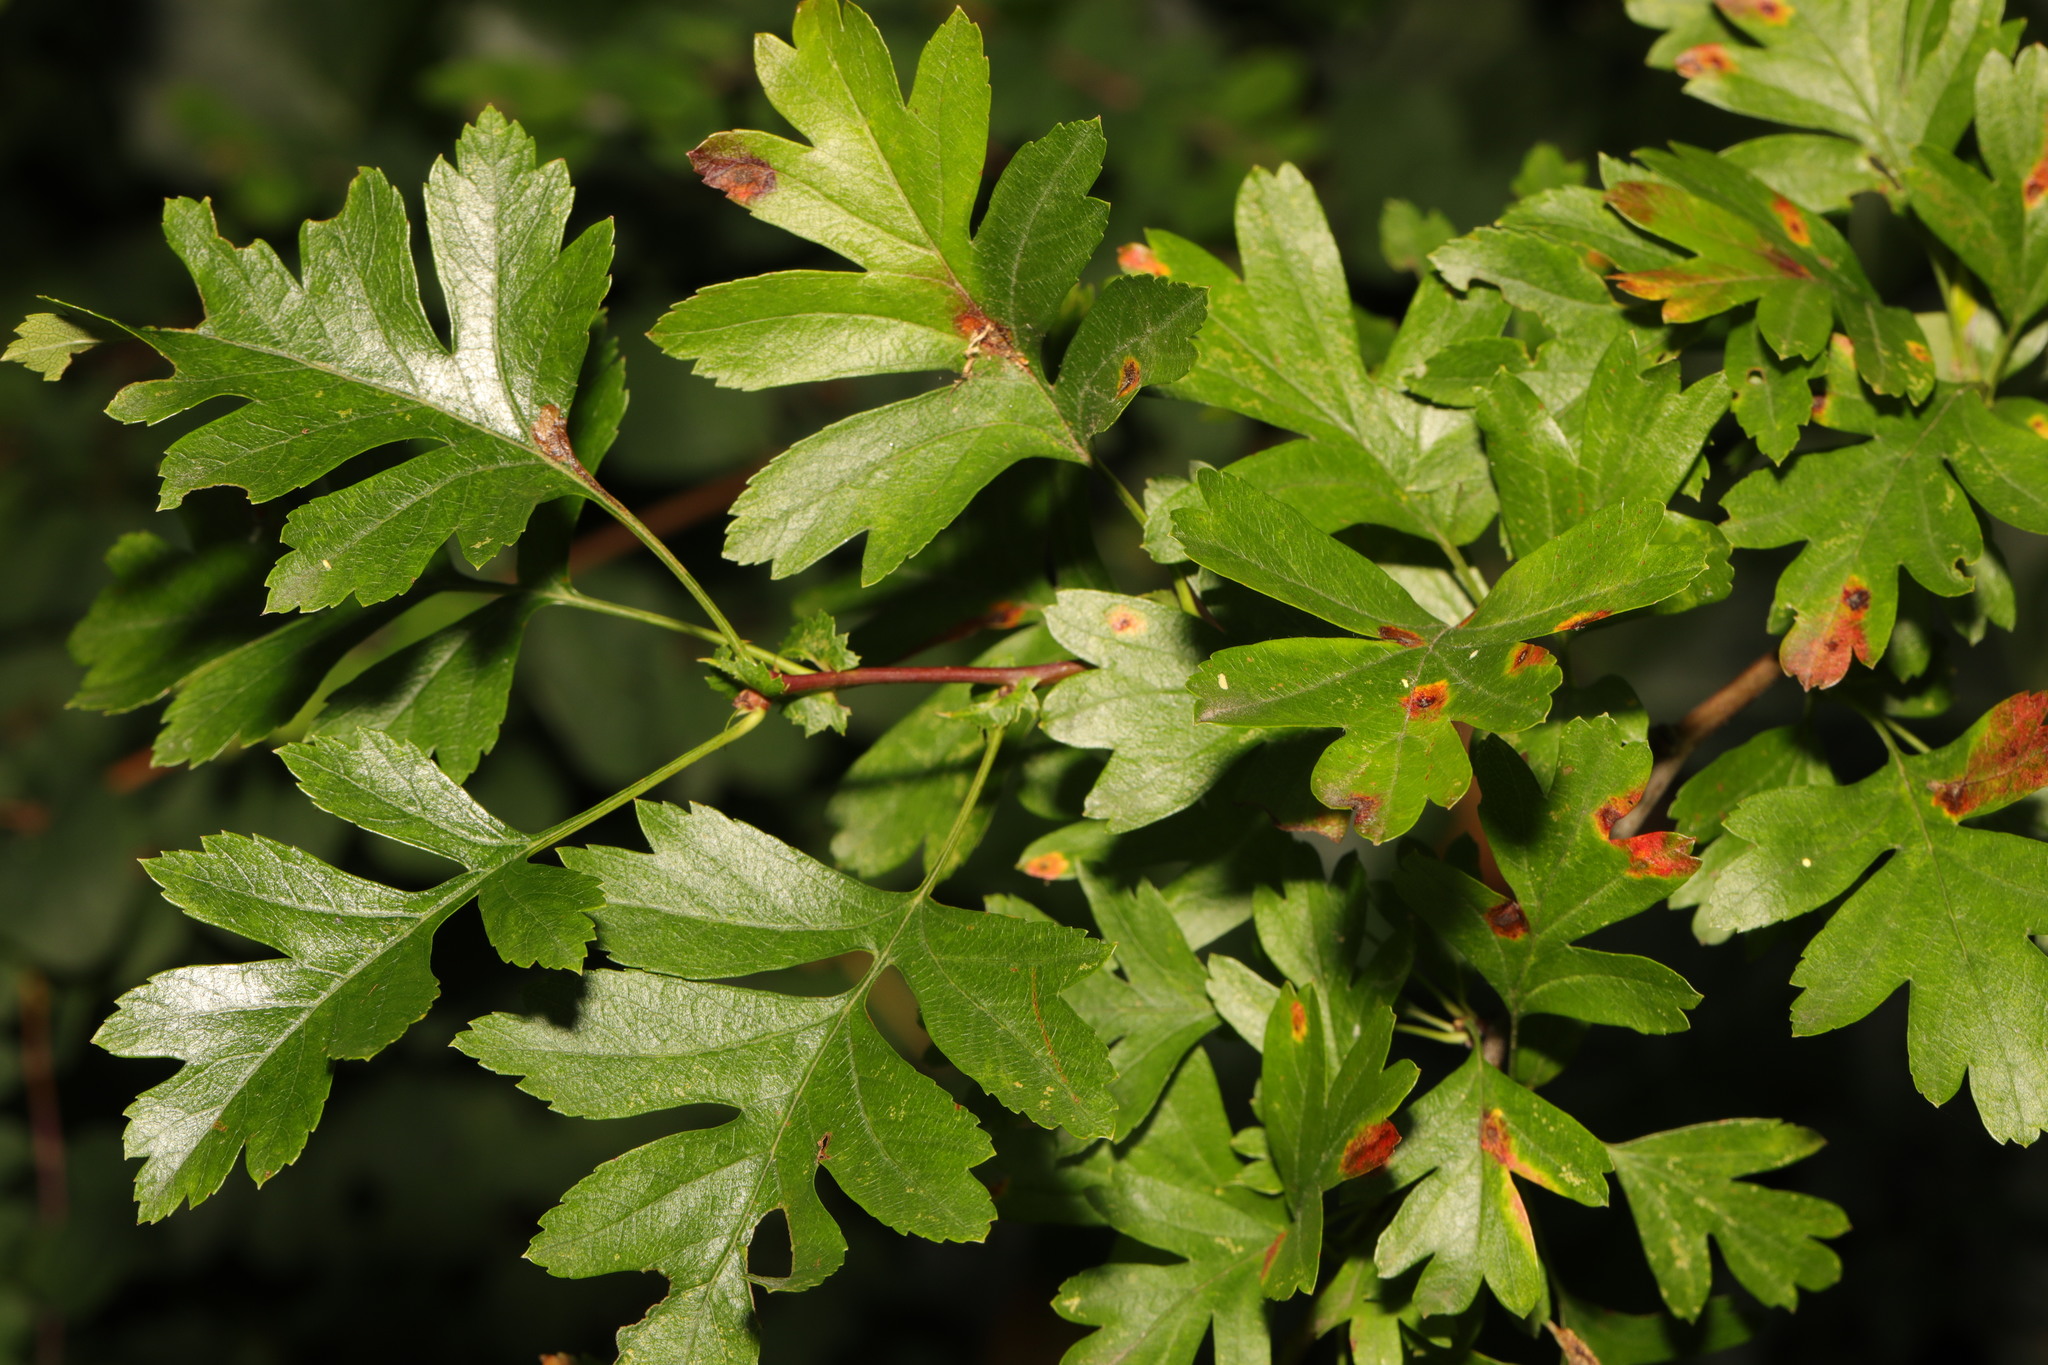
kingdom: Plantae
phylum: Tracheophyta
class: Magnoliopsida
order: Rosales
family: Rosaceae
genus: Crataegus
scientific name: Crataegus monogyna
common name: Hawthorn
